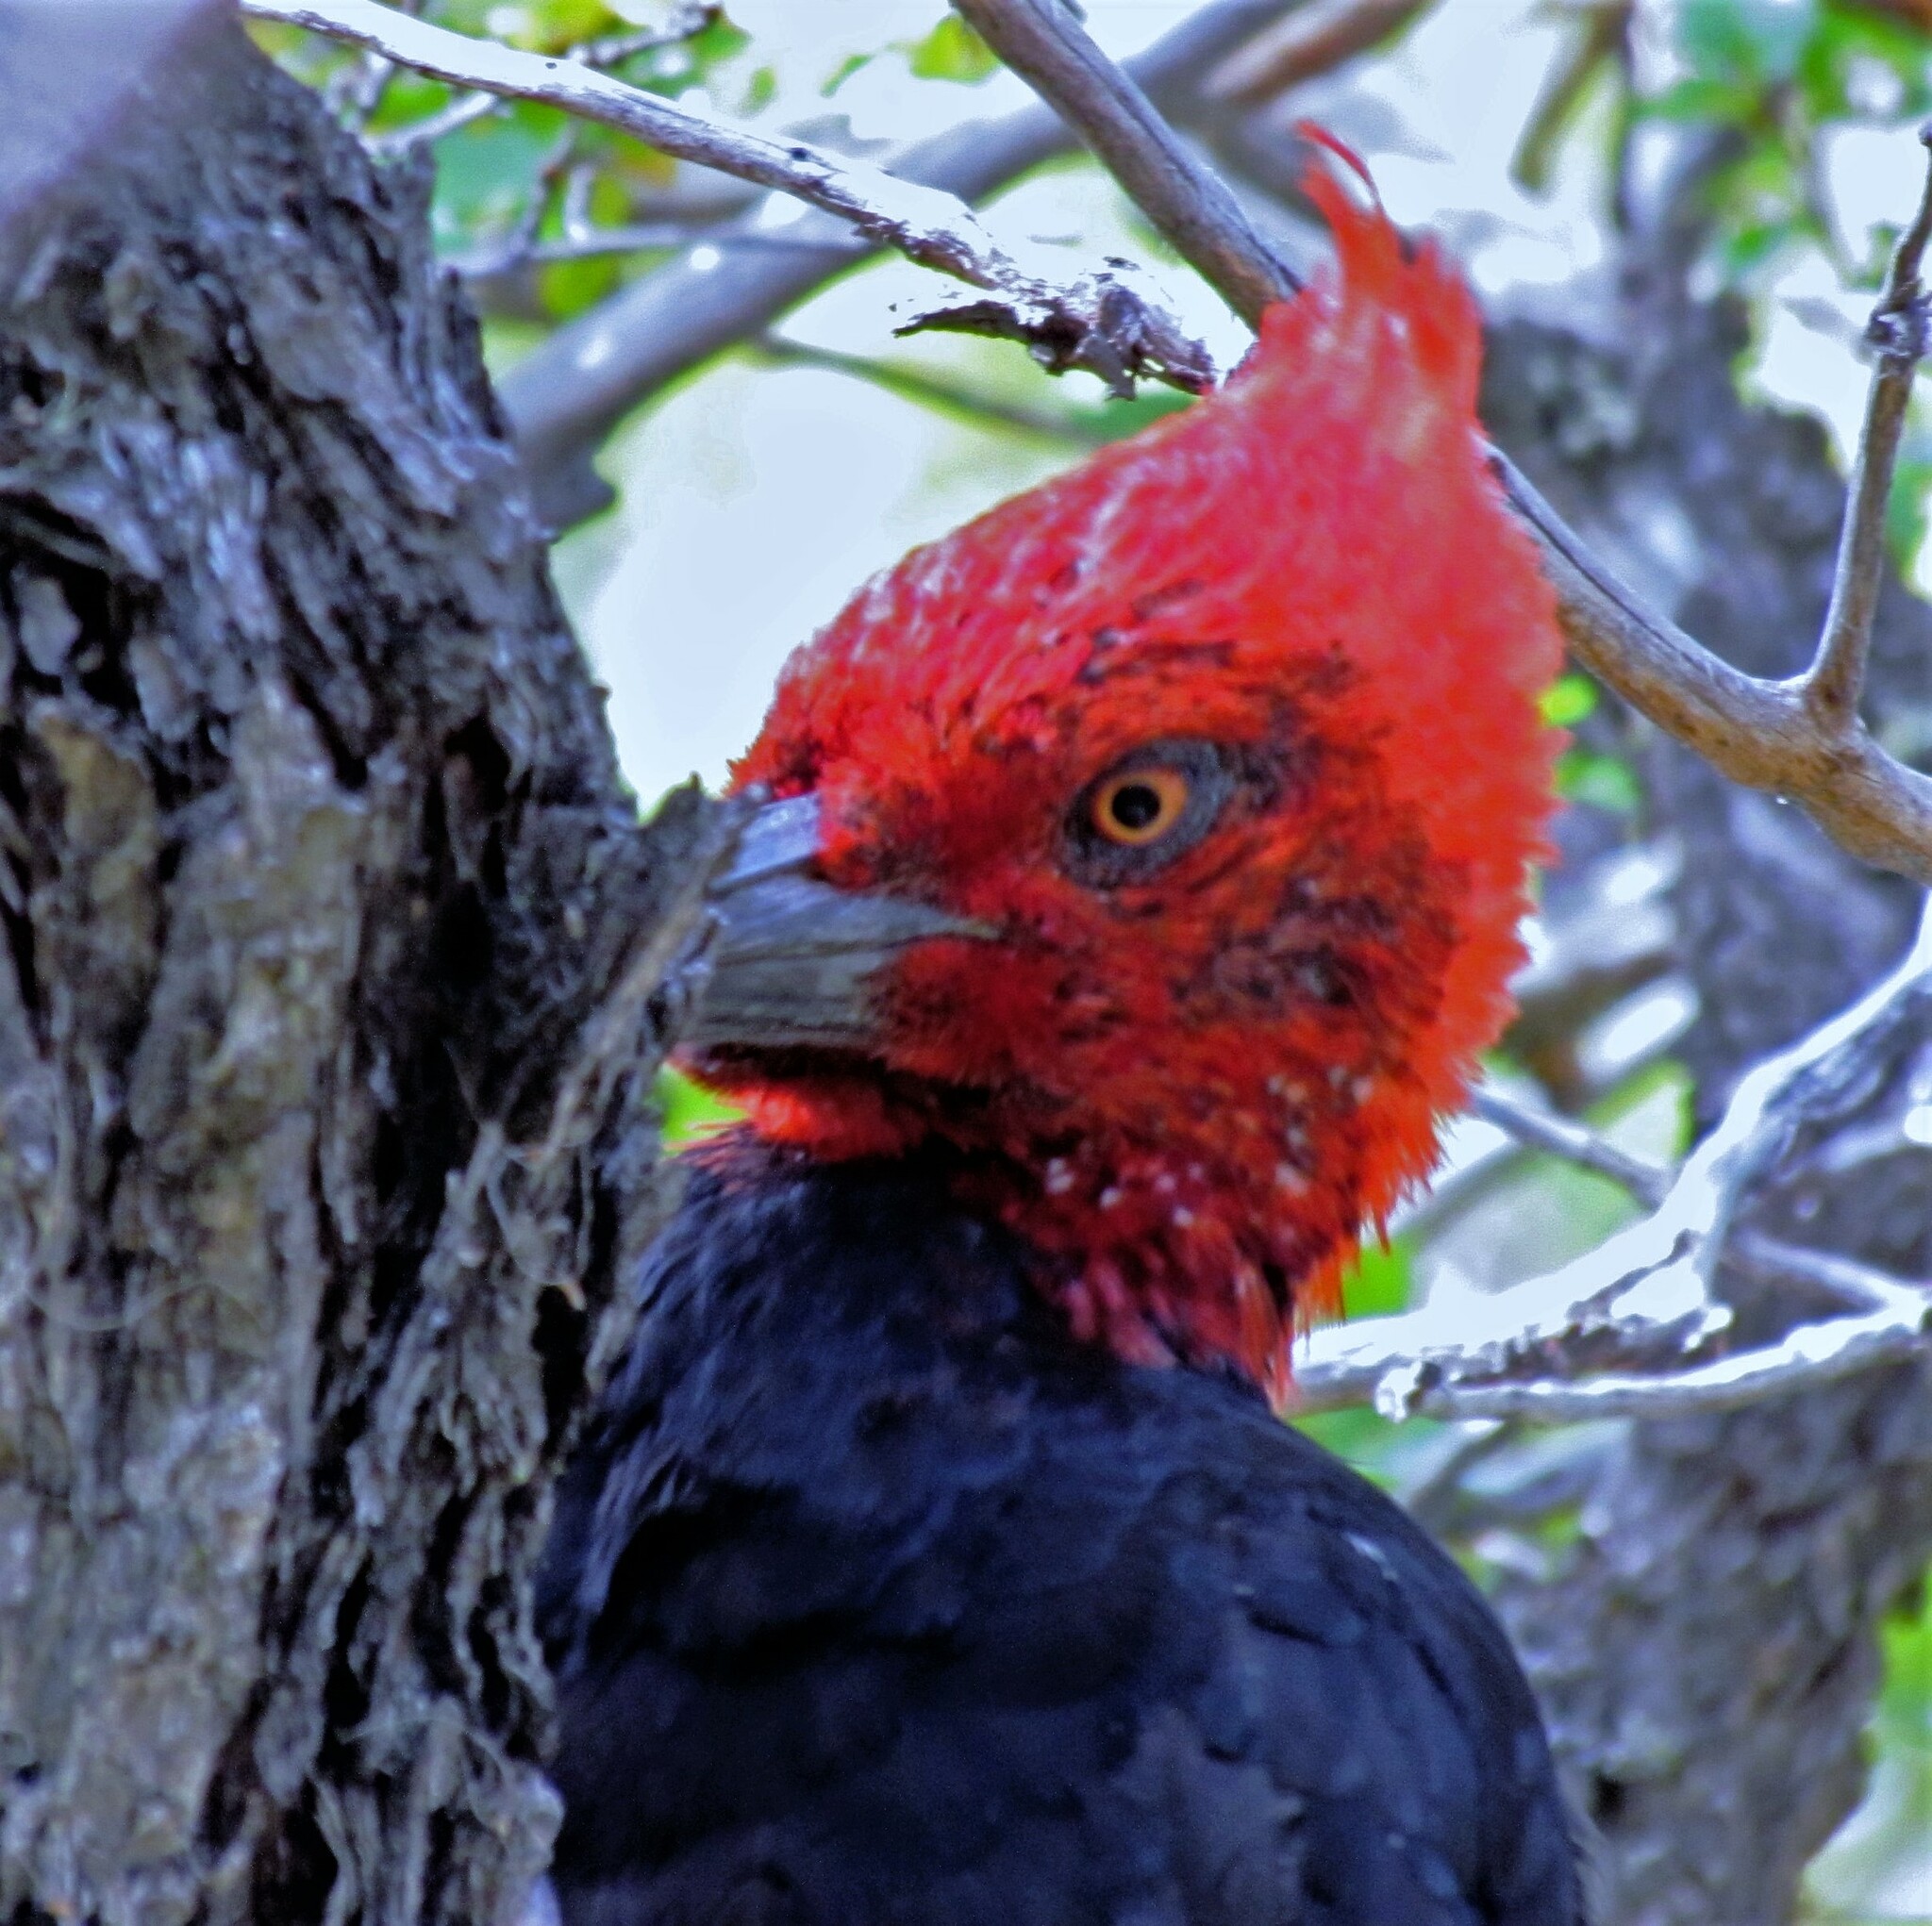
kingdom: Animalia
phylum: Chordata
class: Aves
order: Piciformes
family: Picidae
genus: Campephilus
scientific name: Campephilus magellanicus
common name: Magellanic woodpecker
